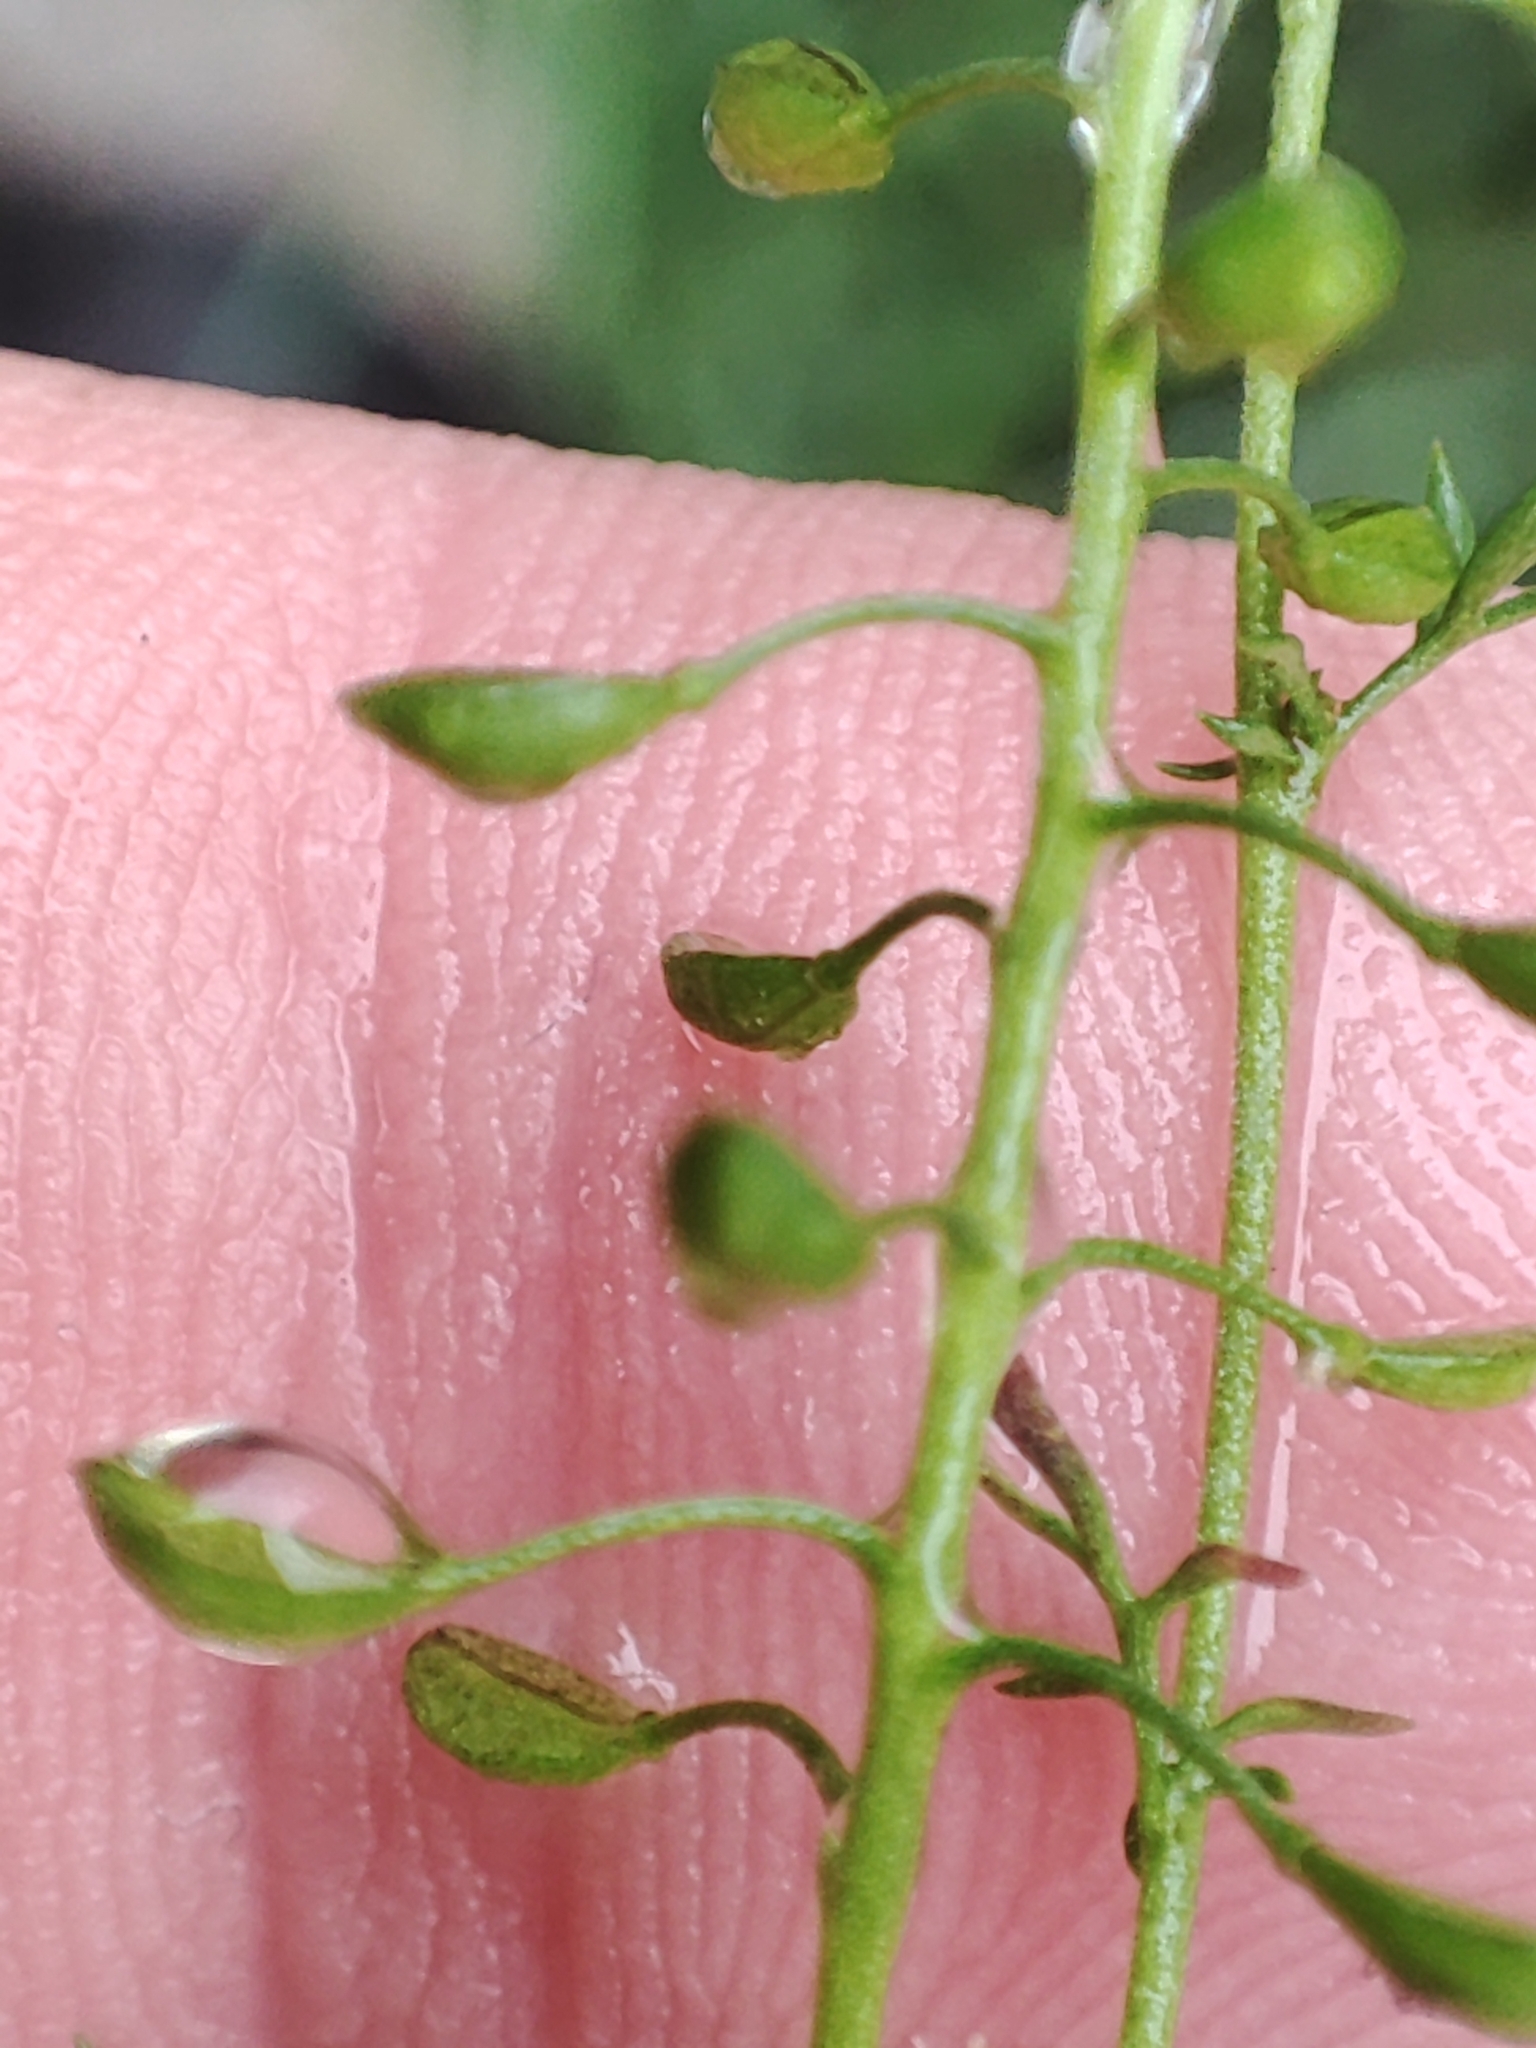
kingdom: Plantae
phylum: Tracheophyta
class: Magnoliopsida
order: Brassicales
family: Brassicaceae
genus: Hornungia
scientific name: Hornungia petraea
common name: Hutchinsia
